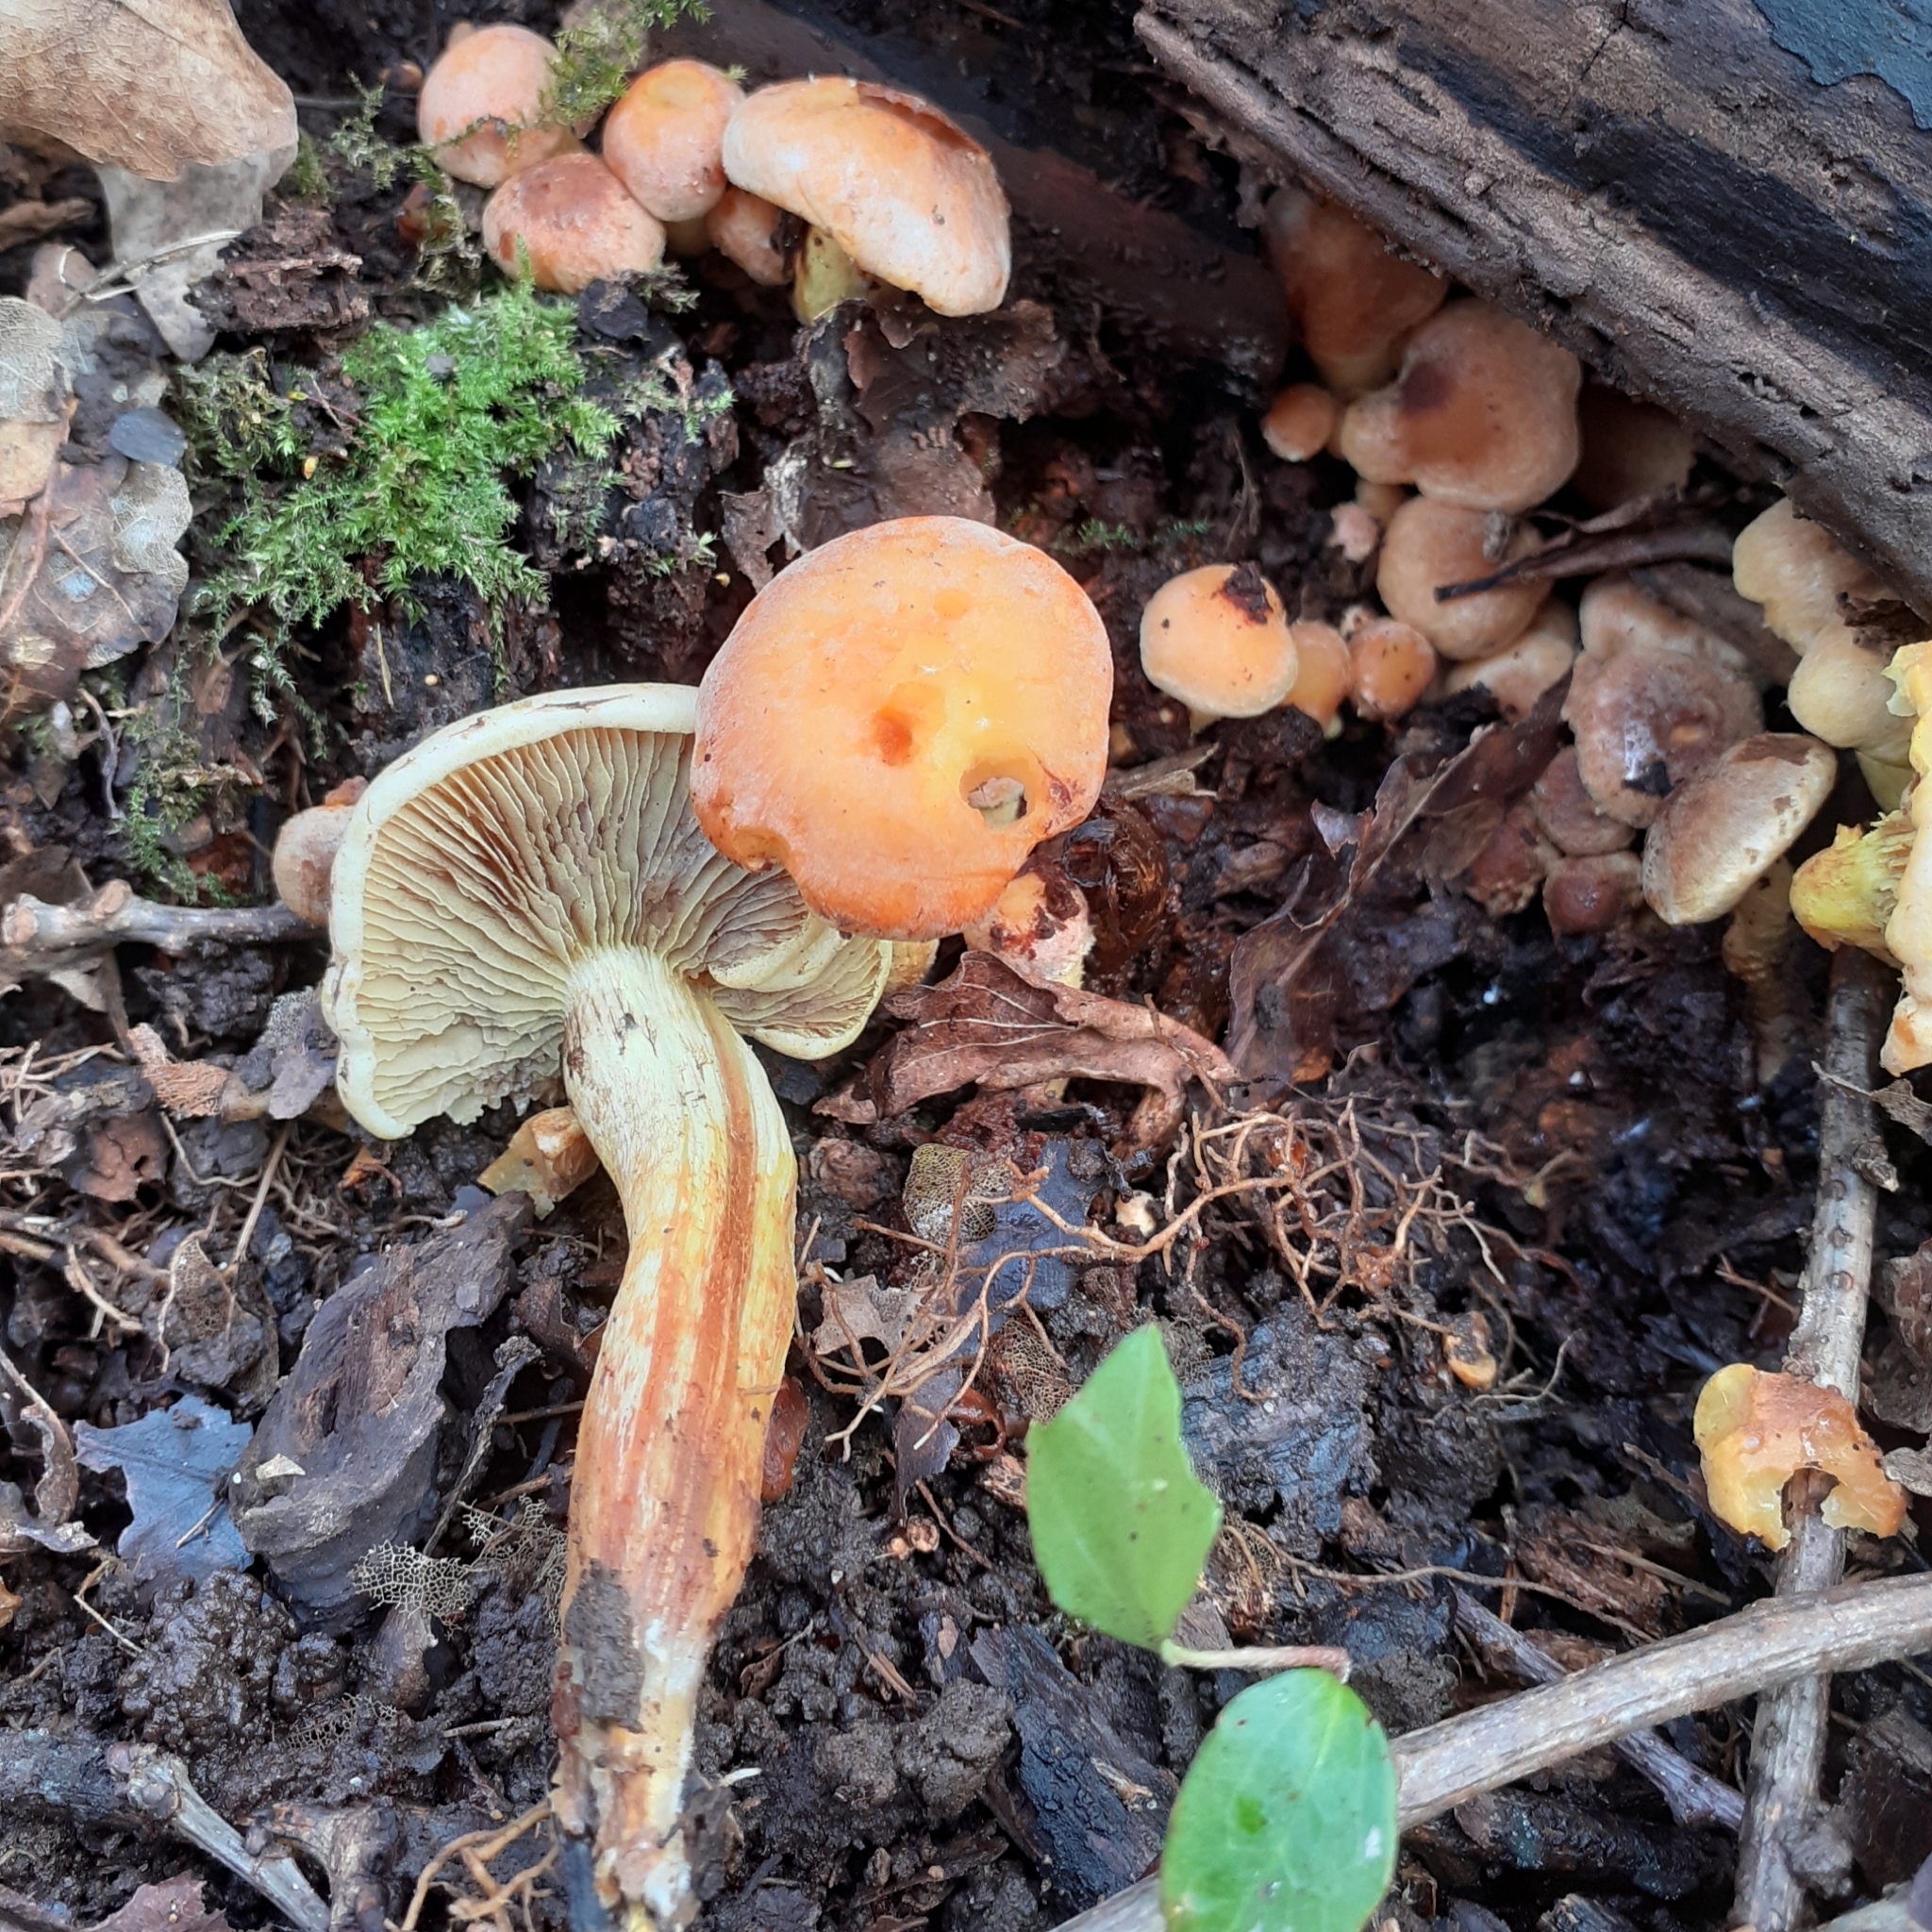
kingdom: Fungi
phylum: Basidiomycota
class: Agaricomycetes
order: Agaricales
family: Strophariaceae
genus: Hypholoma
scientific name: Hypholoma fasciculare
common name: Sulphur tuft
